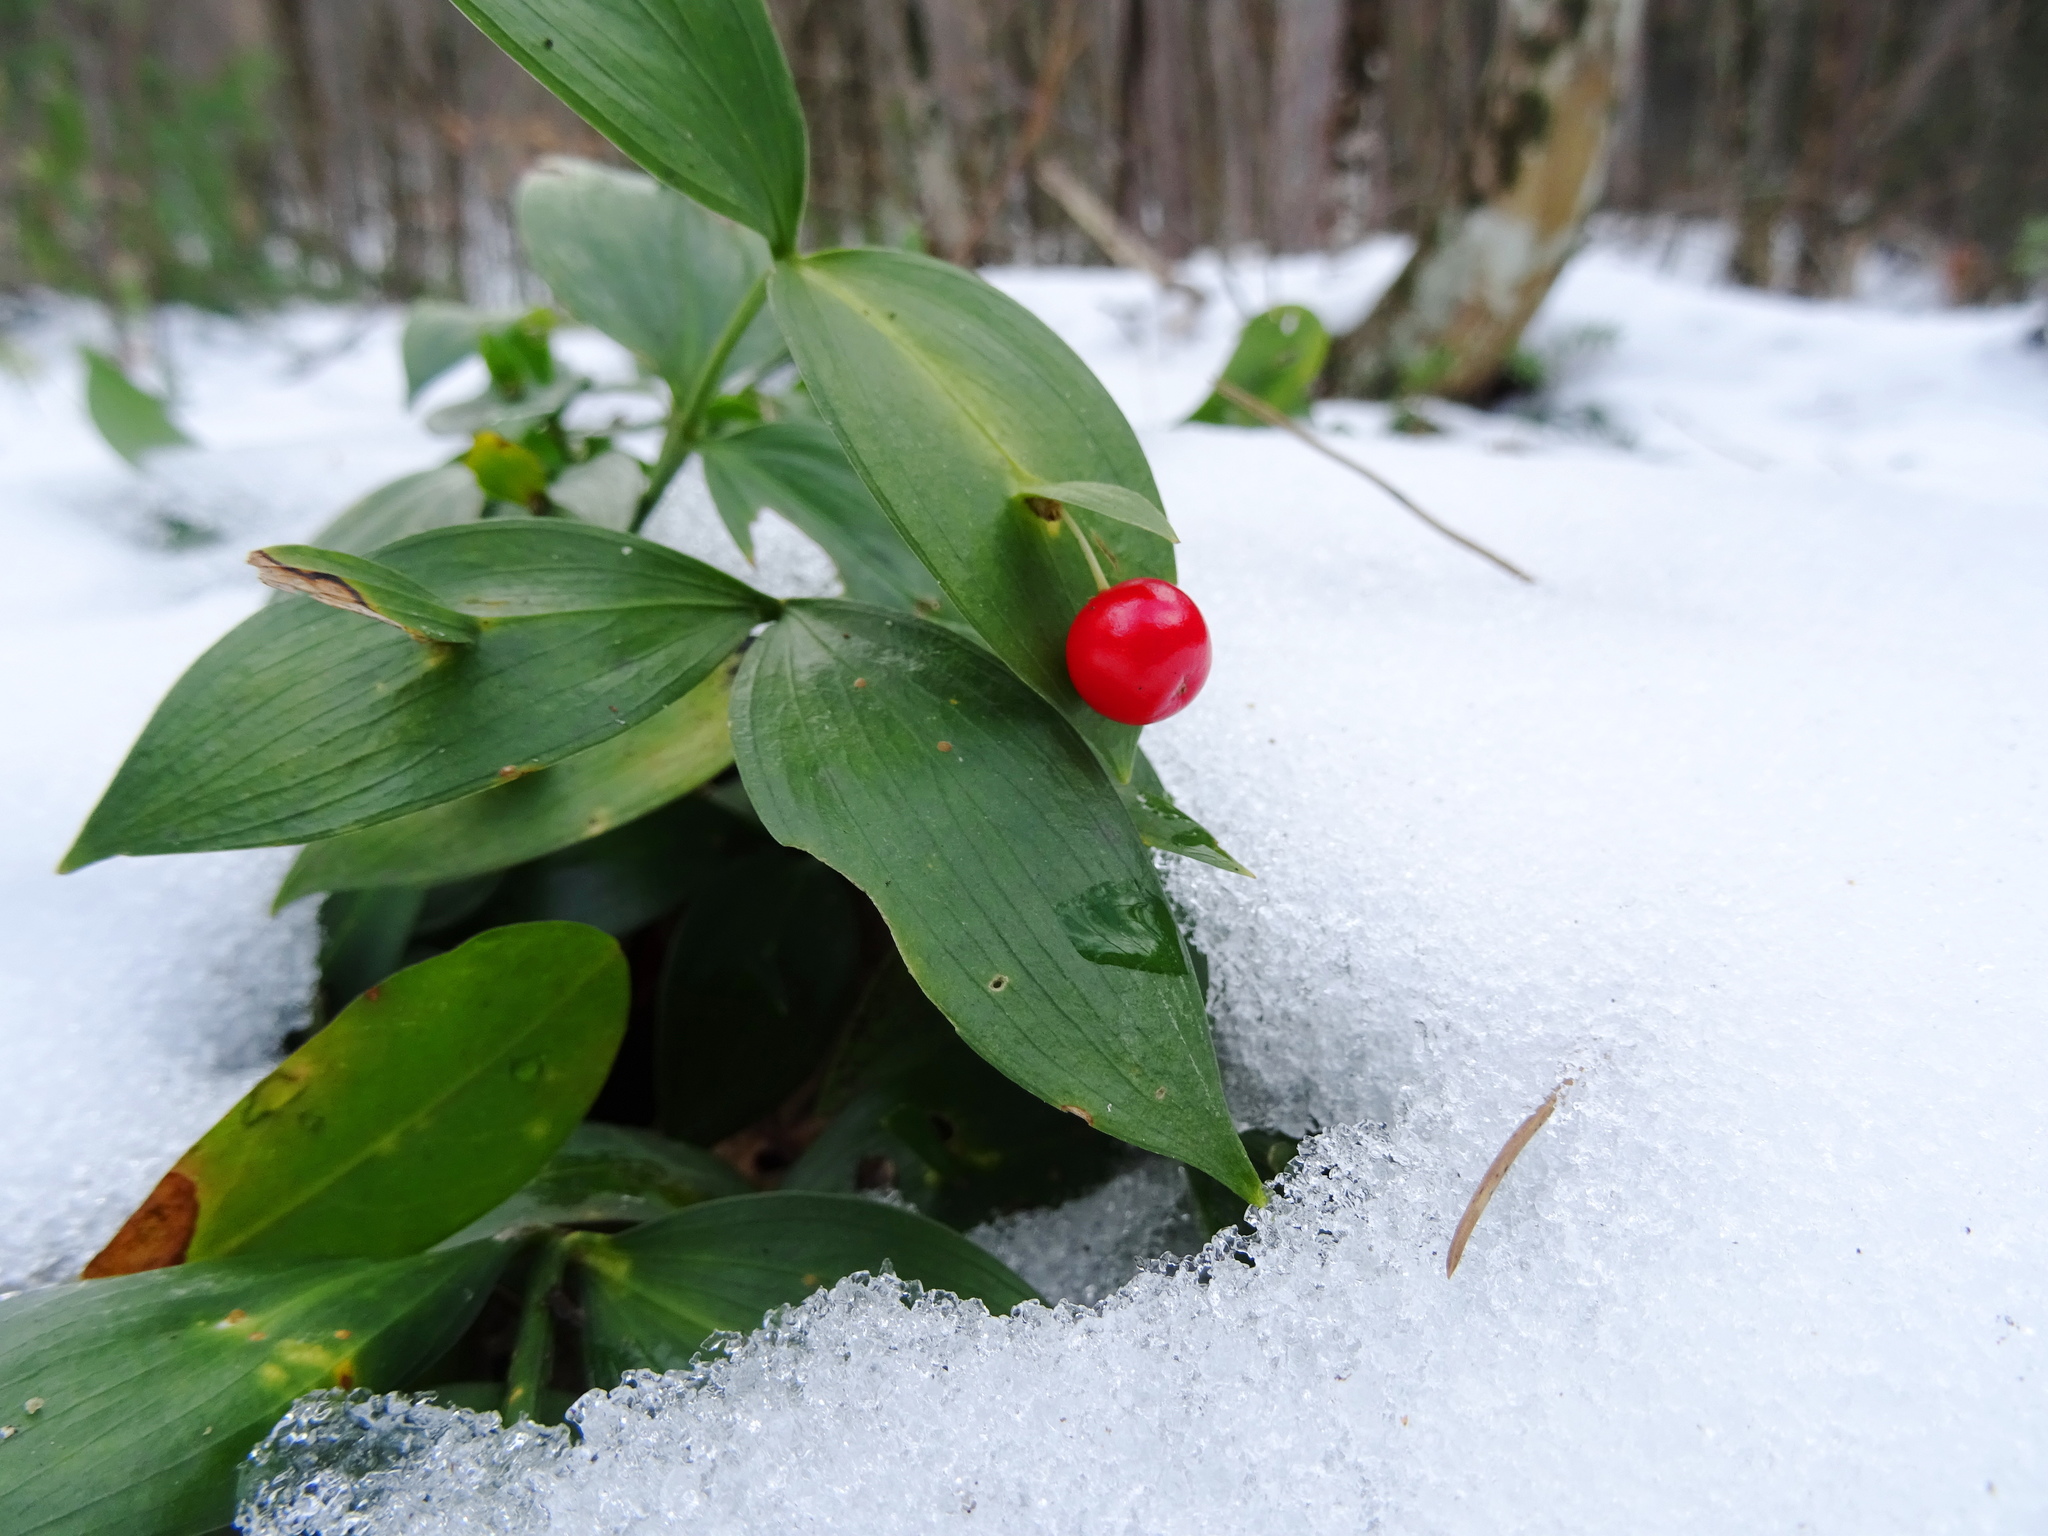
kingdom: Plantae
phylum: Tracheophyta
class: Liliopsida
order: Asparagales
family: Asparagaceae
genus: Ruscus
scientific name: Ruscus hypoglossum
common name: Spineless butcher's-broom
